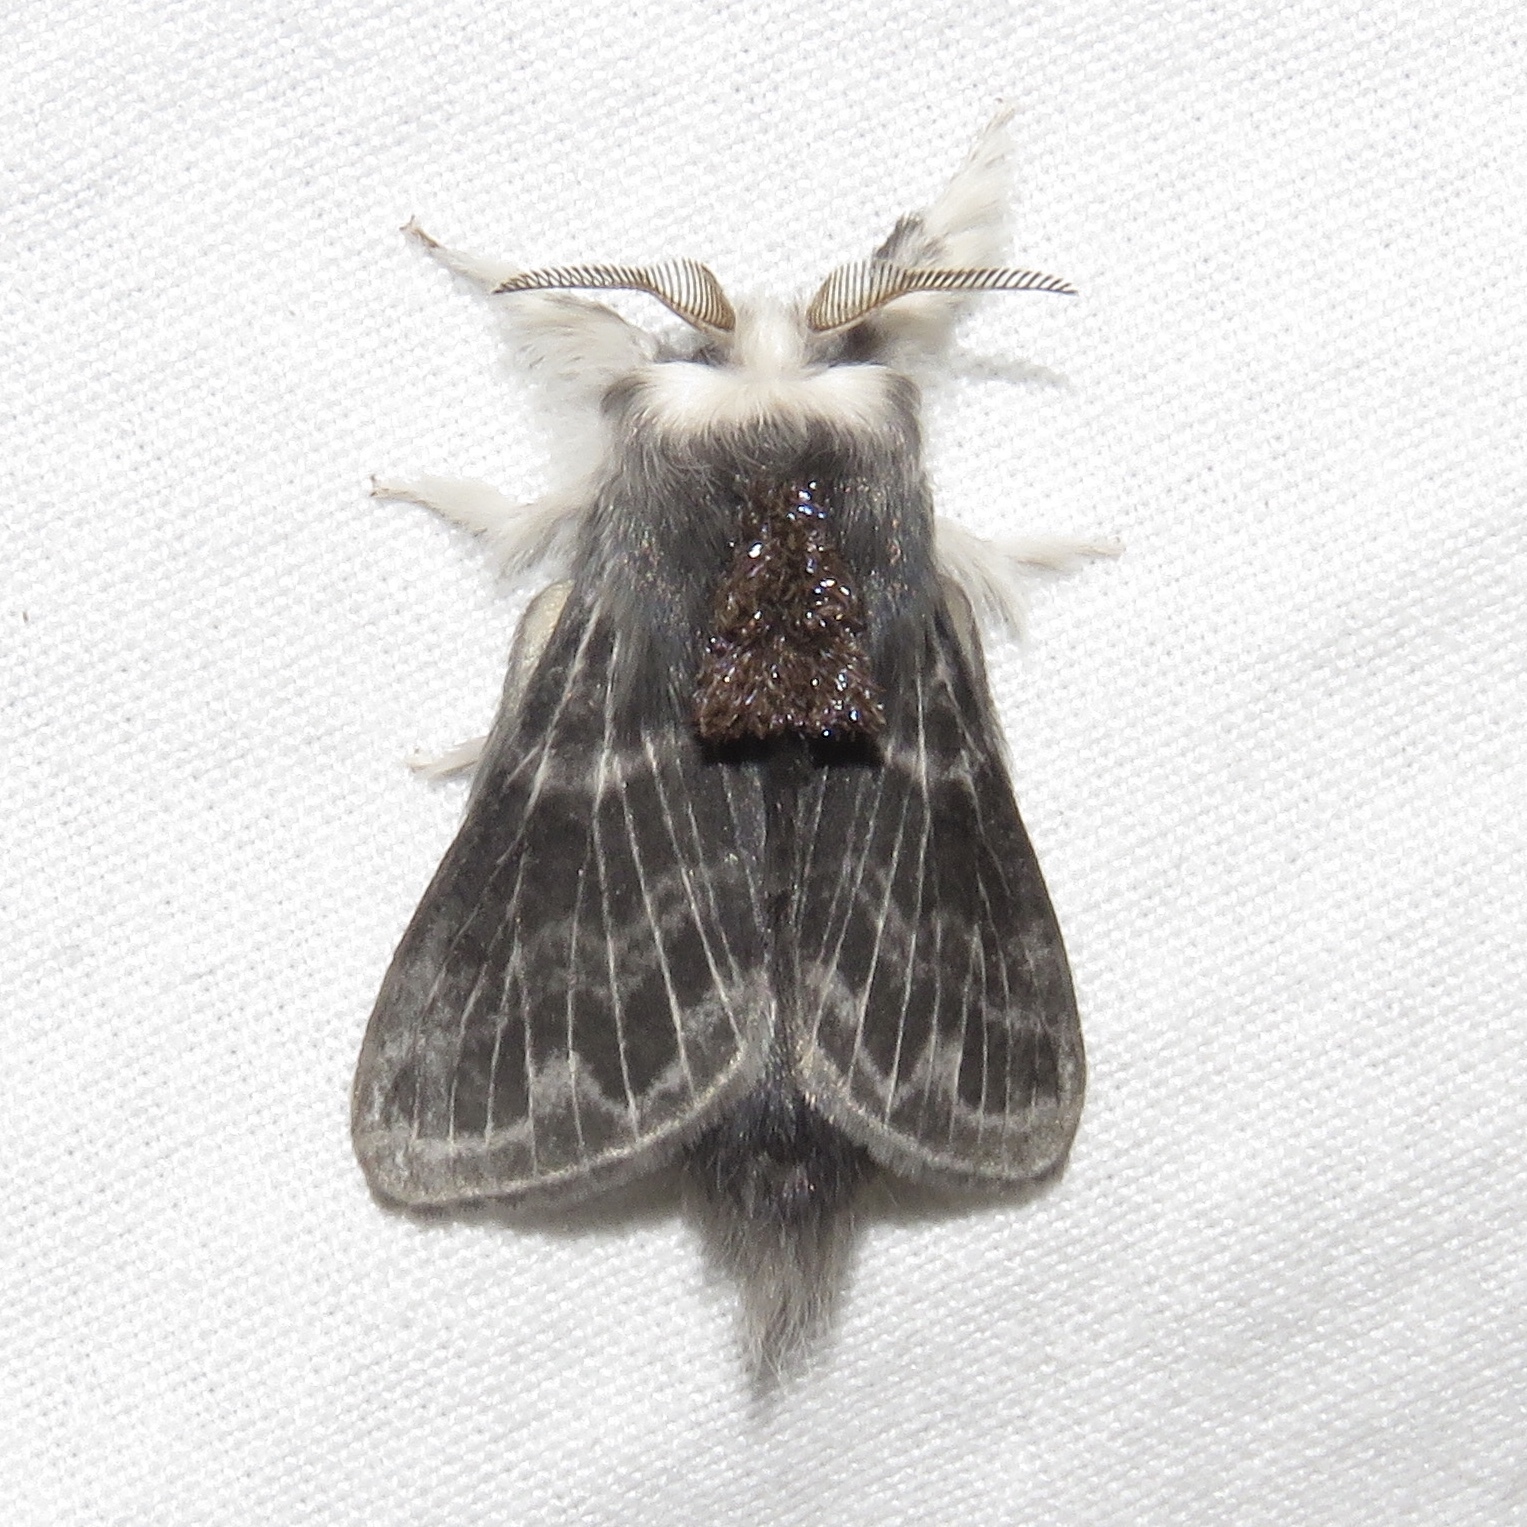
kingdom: Animalia
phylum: Arthropoda
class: Insecta
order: Lepidoptera
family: Lasiocampidae
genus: Tolype
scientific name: Tolype laricis
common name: Larch tolype moth
